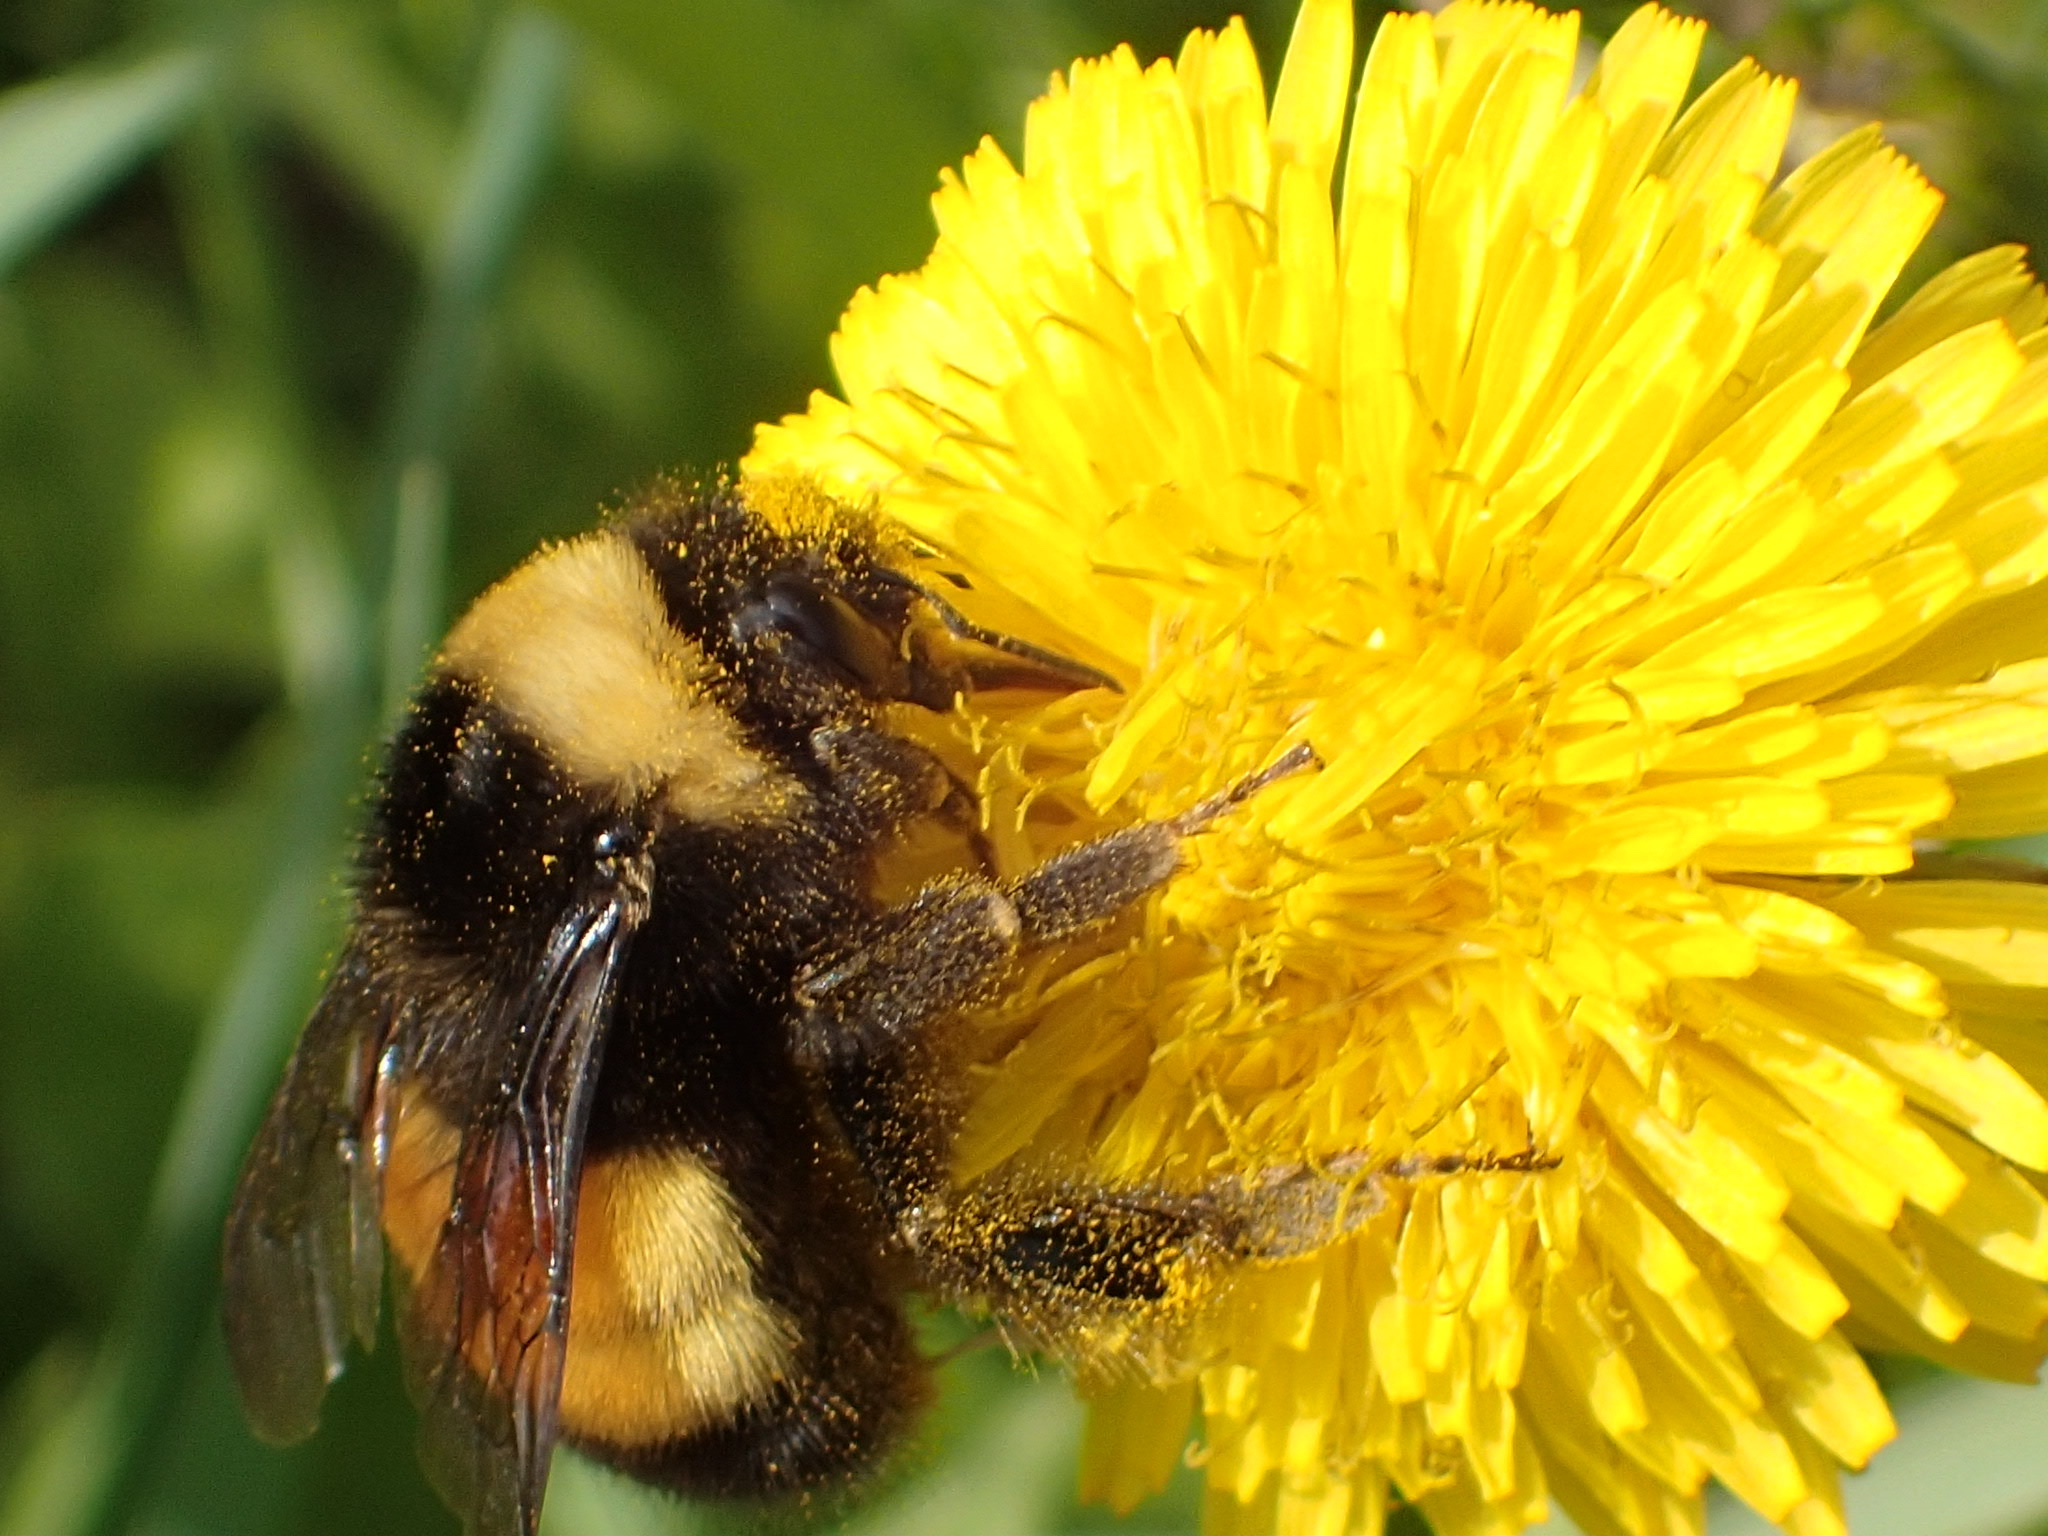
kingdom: Animalia
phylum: Arthropoda
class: Insecta
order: Hymenoptera
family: Apidae
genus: Bombus
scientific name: Bombus terricola
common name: Yellow-banded bumble bee
